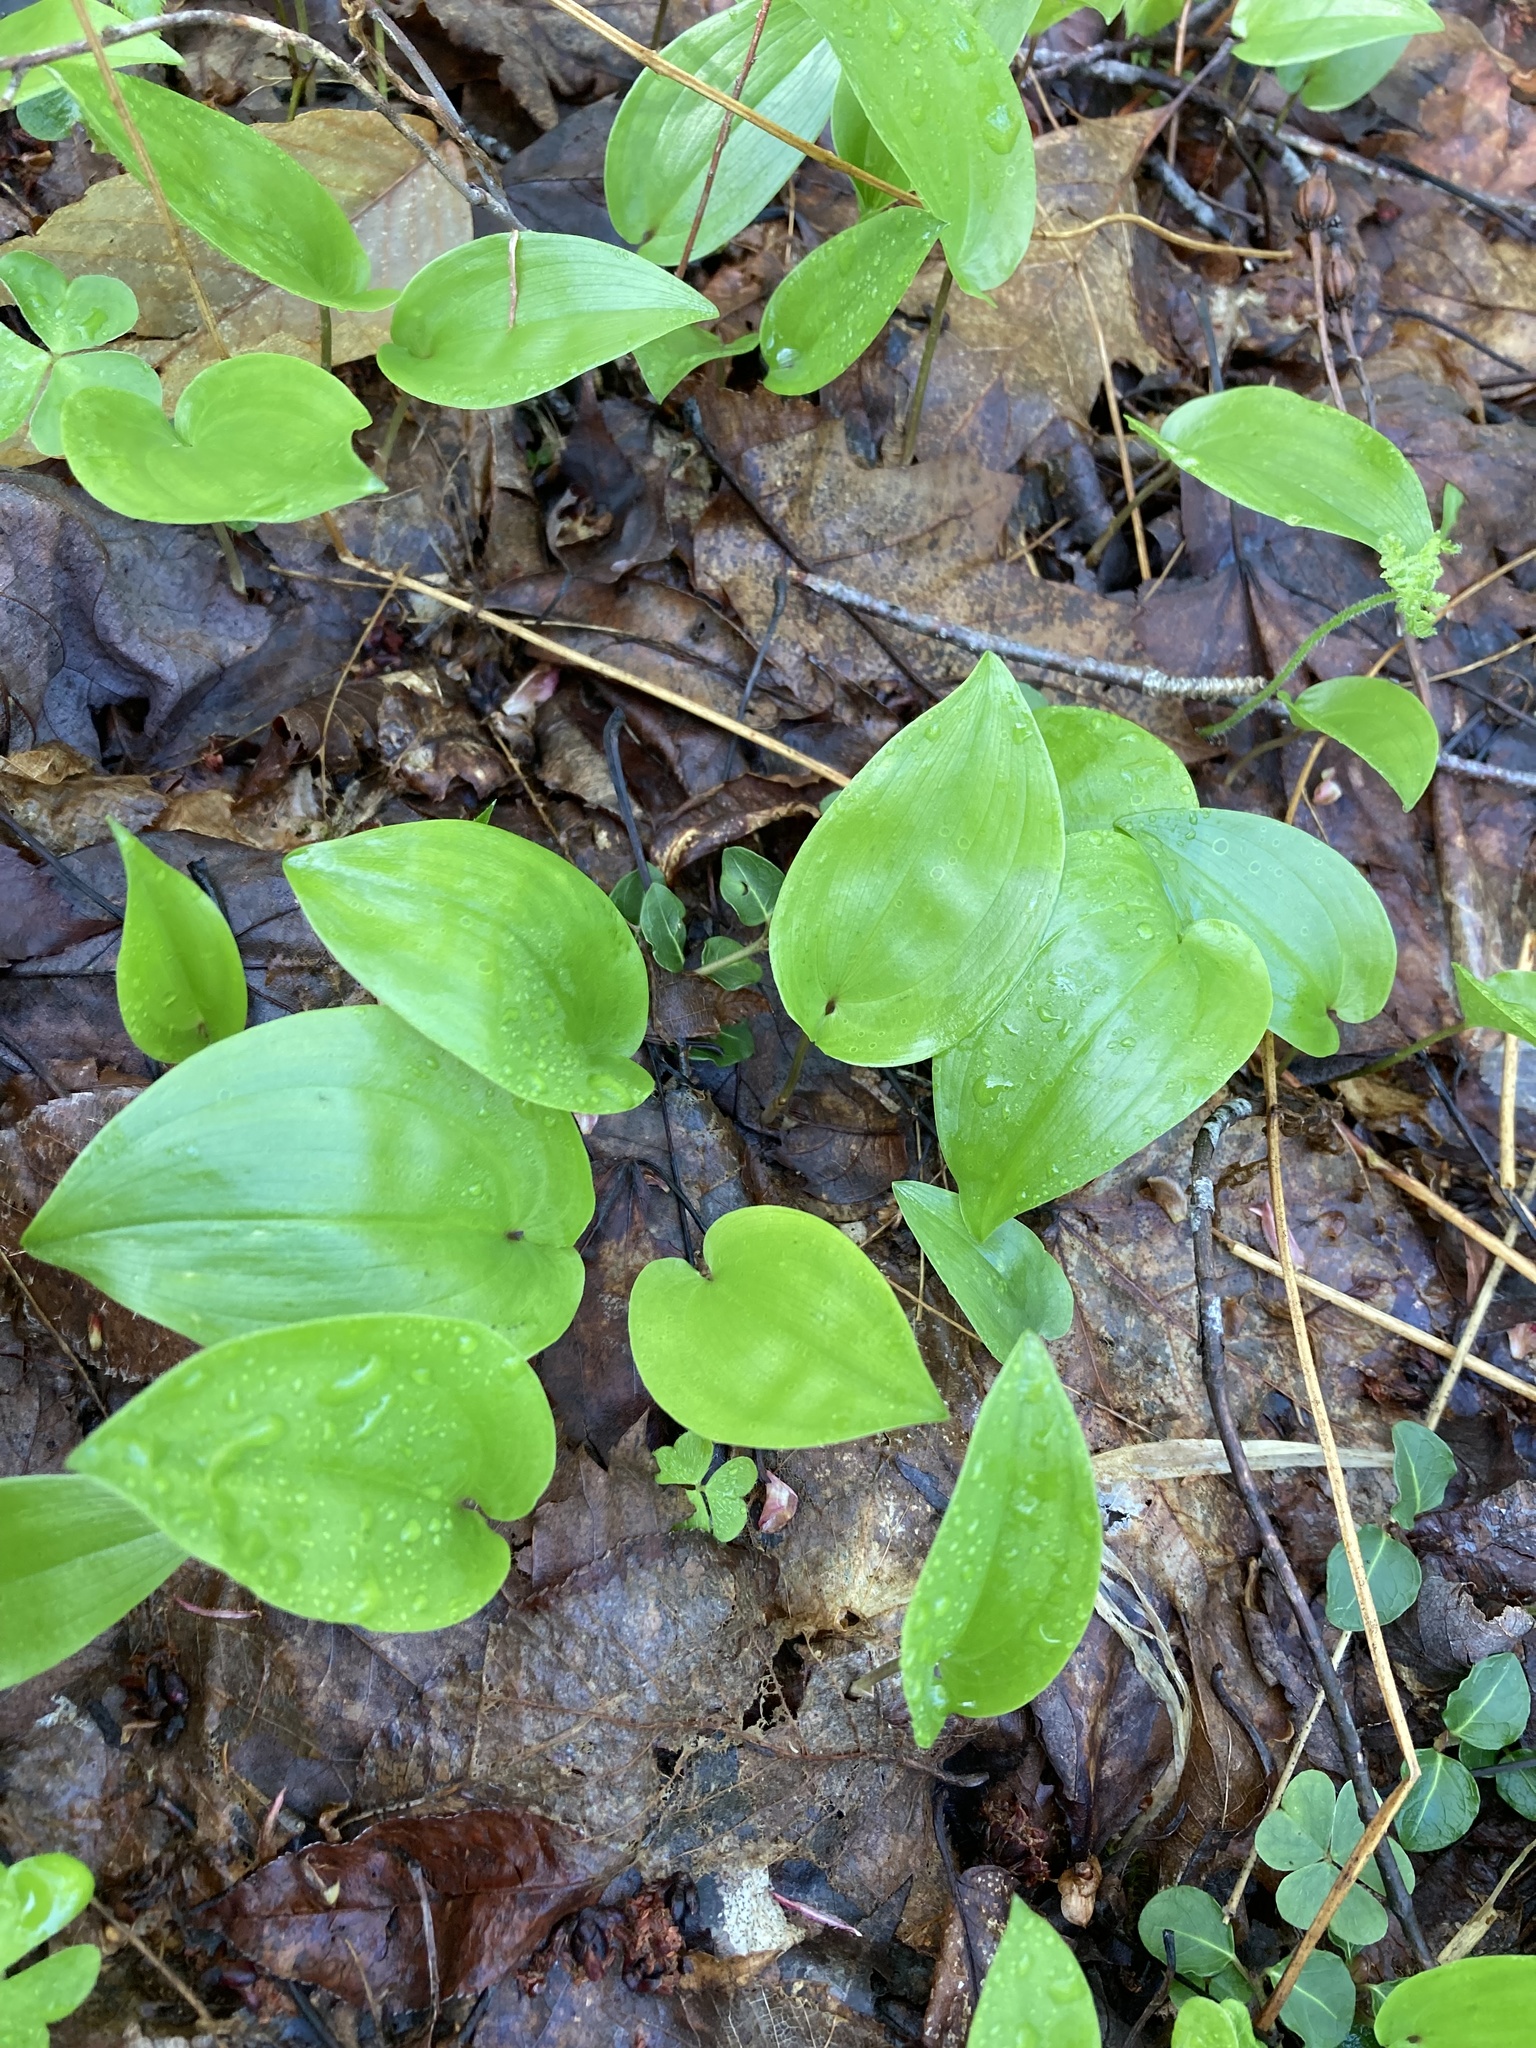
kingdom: Plantae
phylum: Tracheophyta
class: Liliopsida
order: Asparagales
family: Asparagaceae
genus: Maianthemum
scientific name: Maianthemum canadense
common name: False lily-of-the-valley
